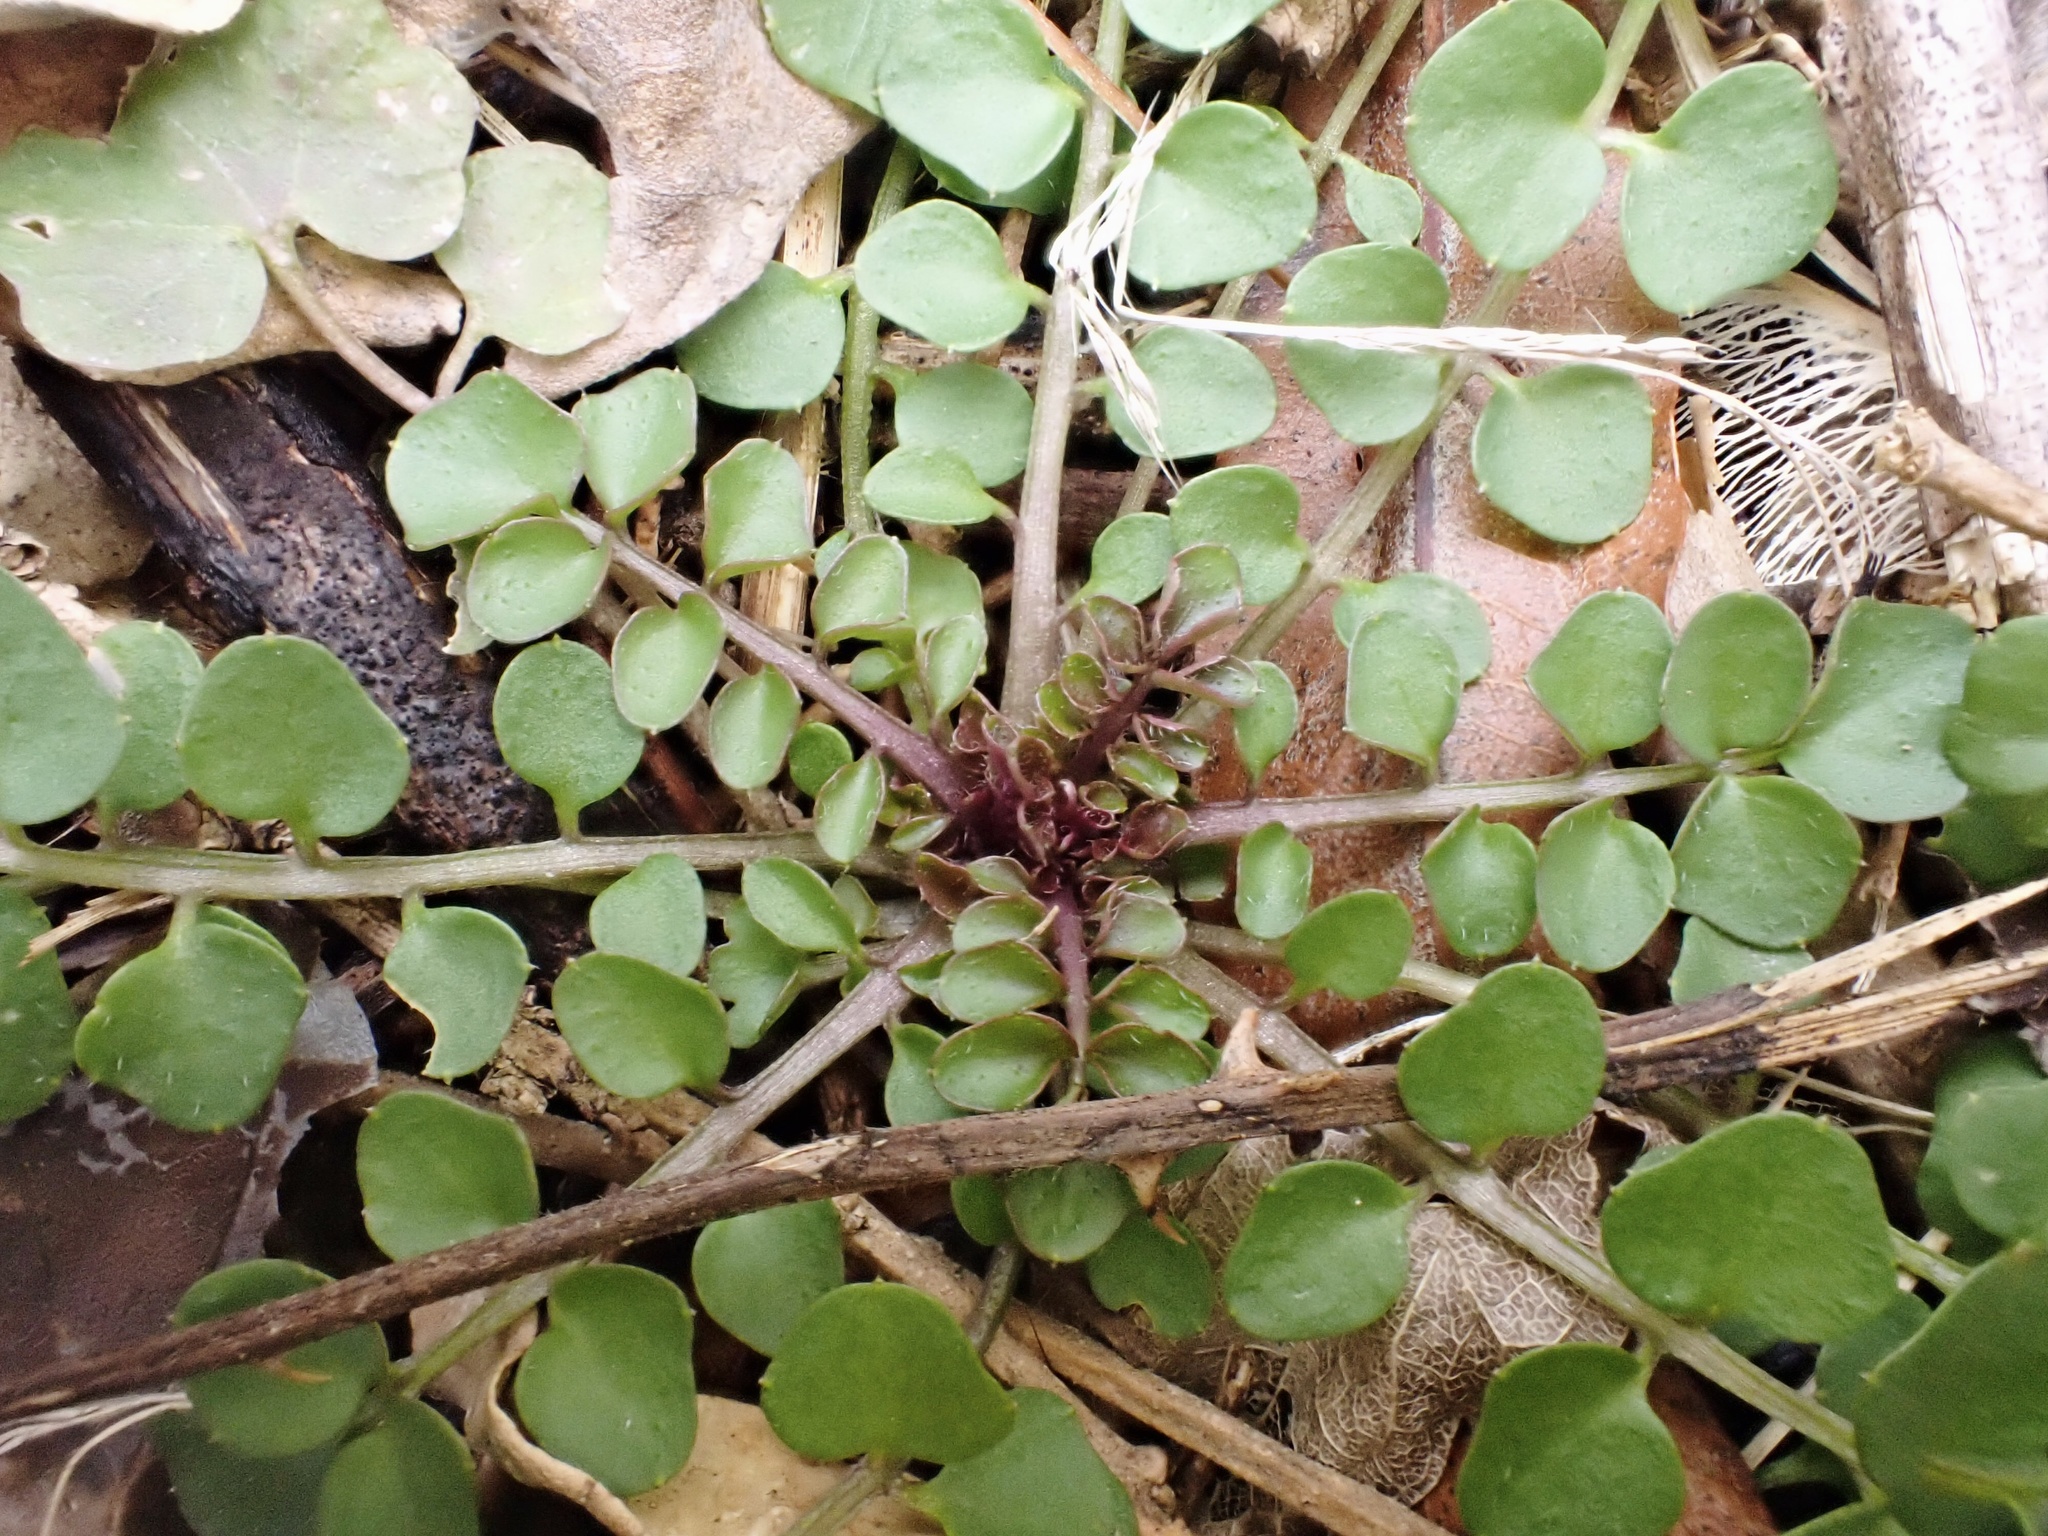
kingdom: Plantae
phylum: Tracheophyta
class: Magnoliopsida
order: Brassicales
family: Brassicaceae
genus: Cardamine
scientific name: Cardamine hirsuta
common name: Hairy bittercress
